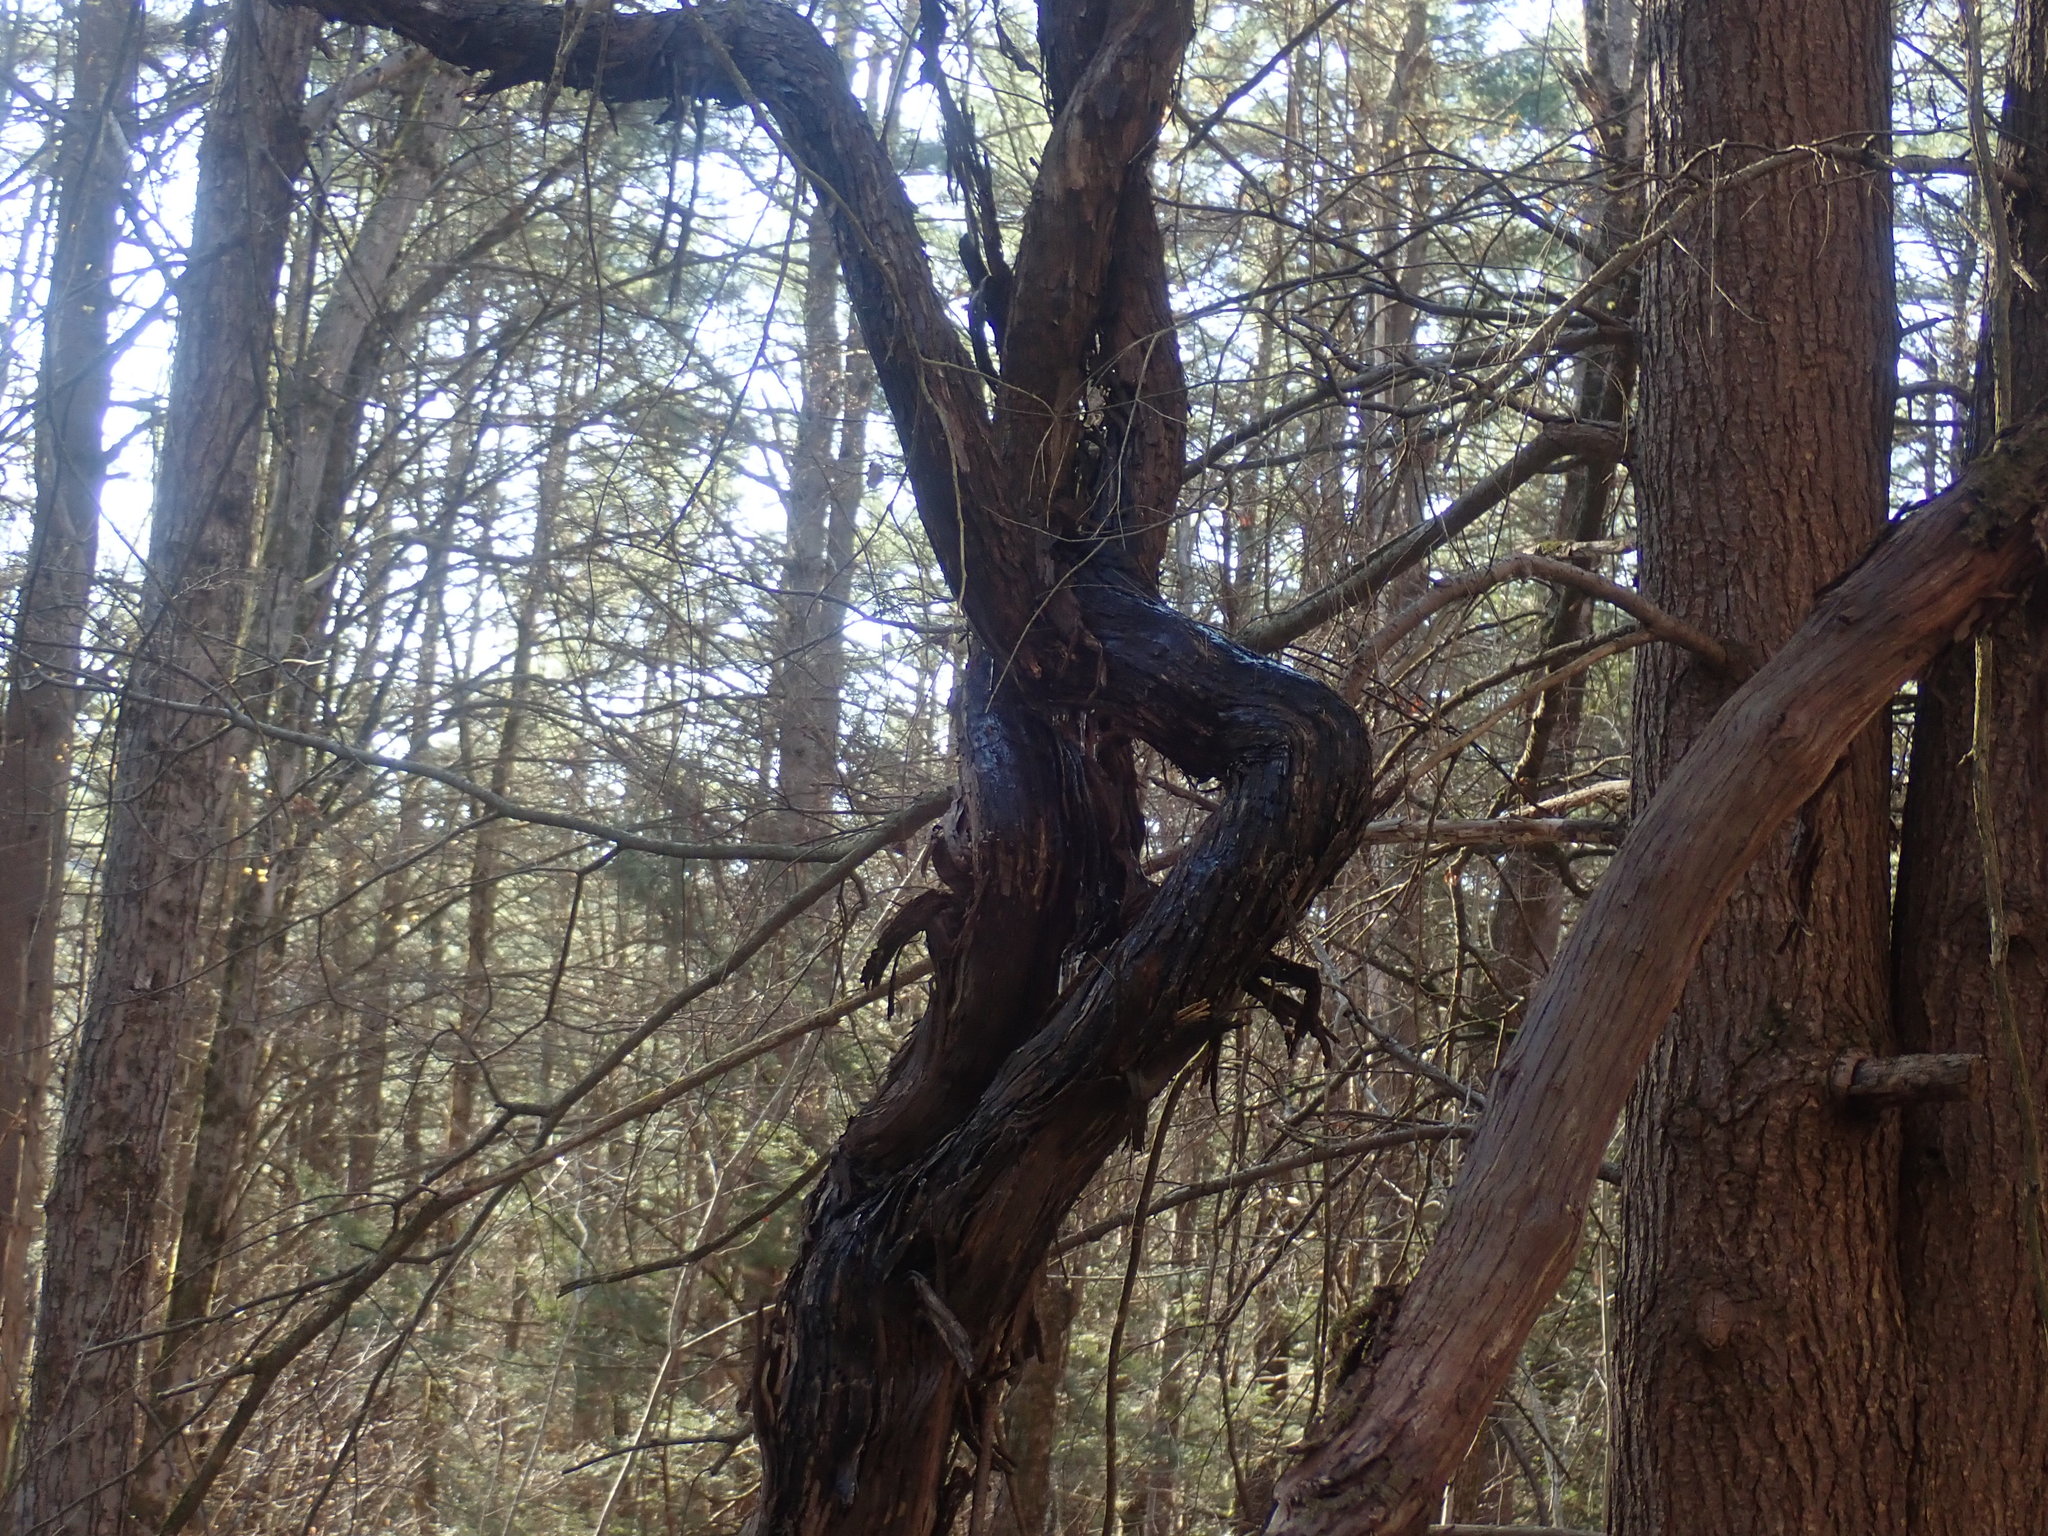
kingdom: Plantae
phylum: Tracheophyta
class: Magnoliopsida
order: Vitales
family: Vitaceae
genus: Vitis
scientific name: Vitis
